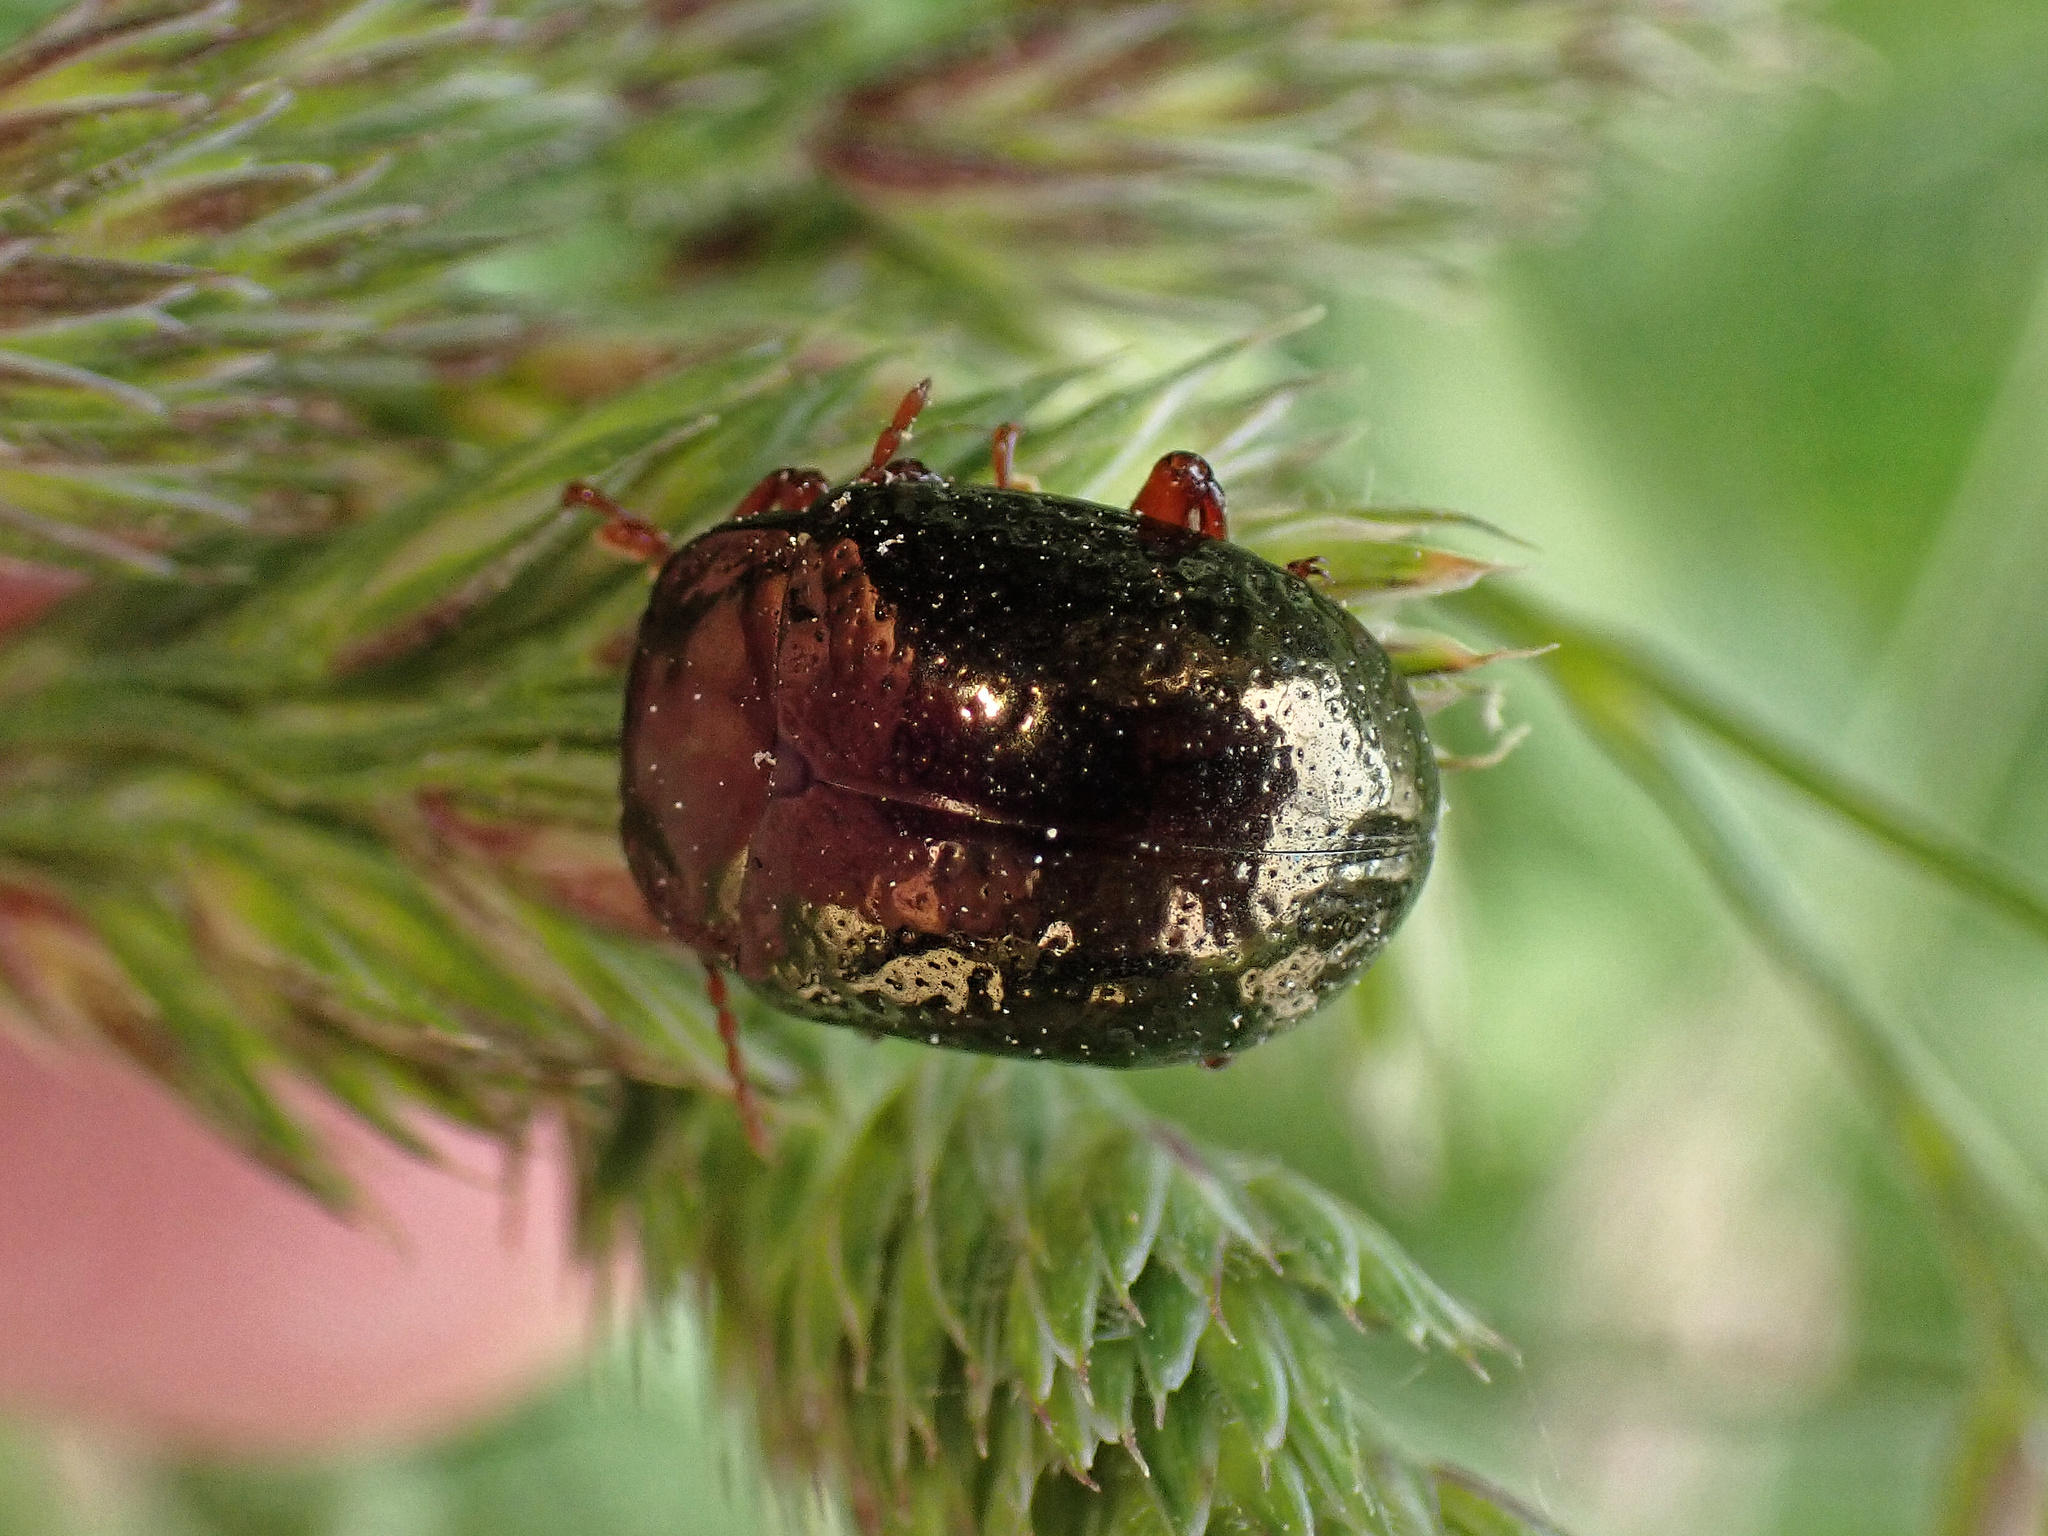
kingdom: Animalia
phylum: Arthropoda
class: Insecta
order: Coleoptera
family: Chrysomelidae
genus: Chrysolina
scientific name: Chrysolina bankii
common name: Leaf beetle
